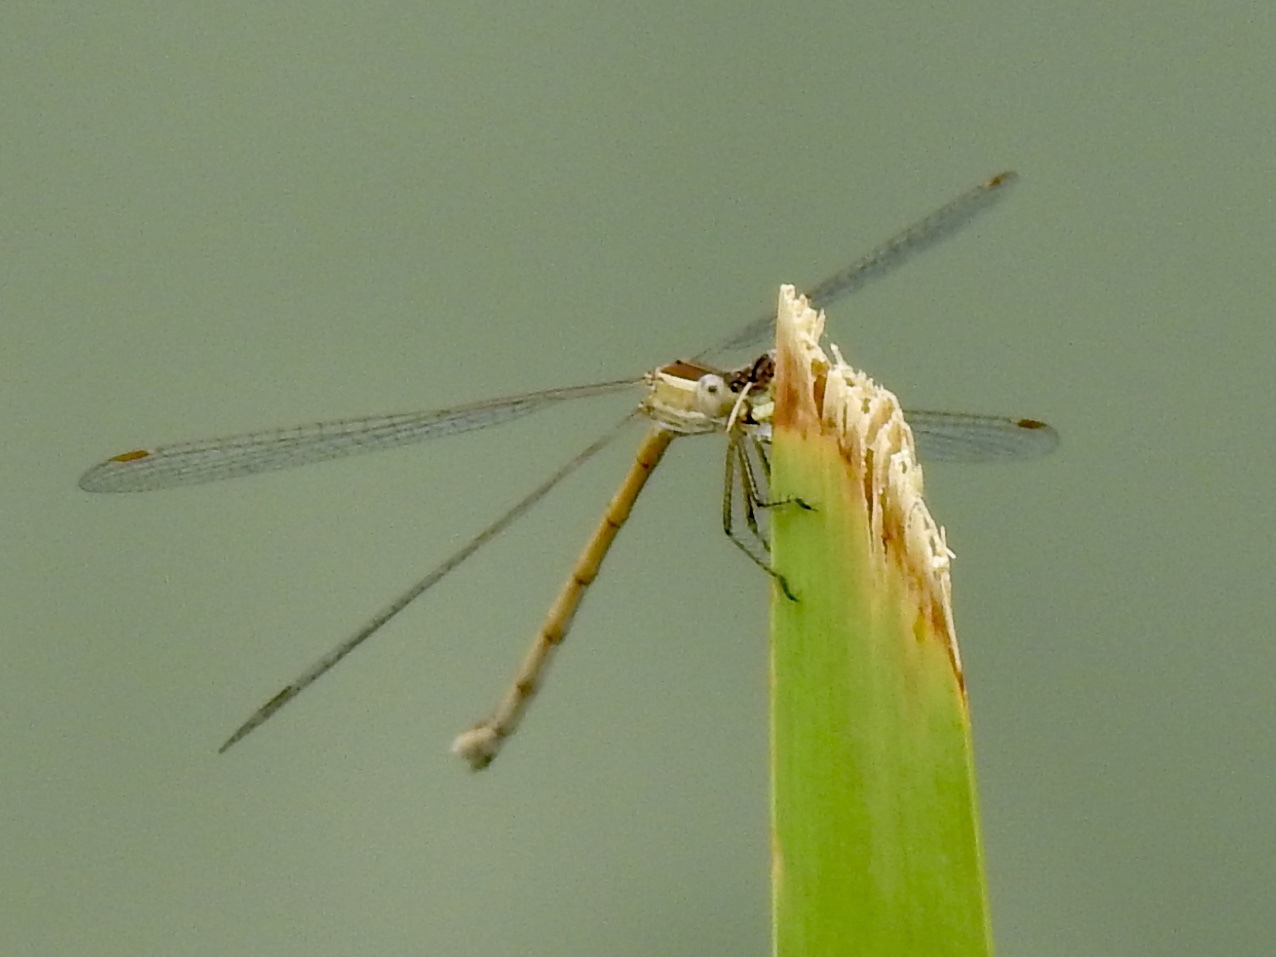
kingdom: Animalia
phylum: Arthropoda
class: Insecta
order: Odonata
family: Lestidae
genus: Lestes
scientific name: Lestes alacer
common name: Plateau spreadwing
